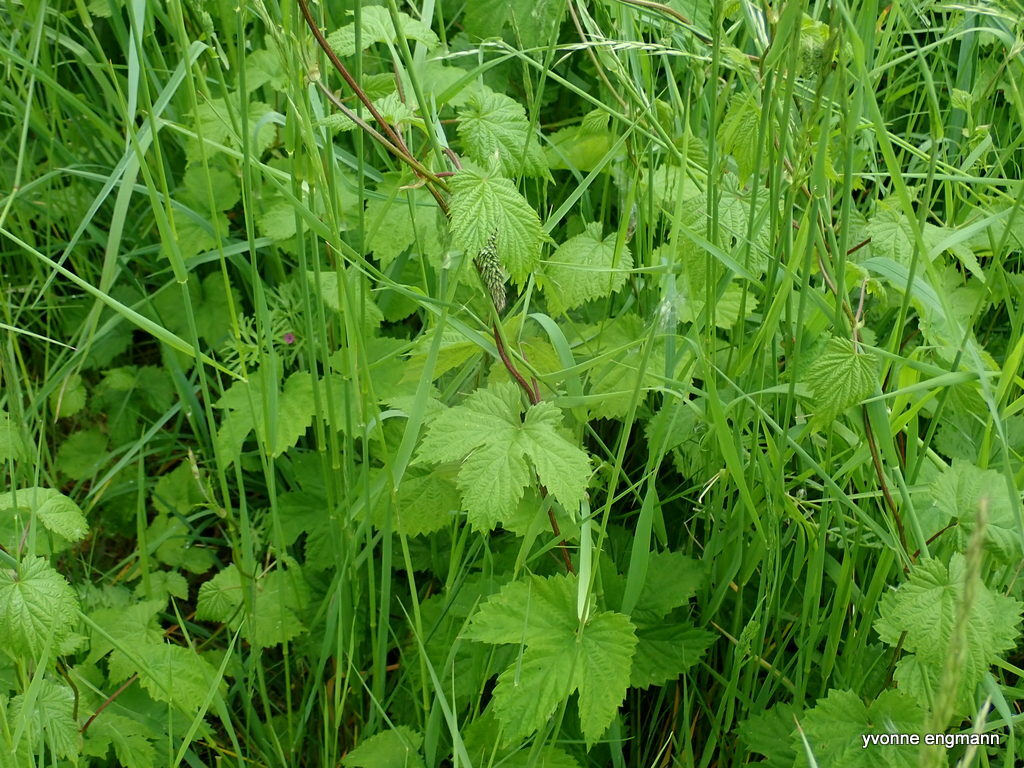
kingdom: Plantae
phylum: Tracheophyta
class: Magnoliopsida
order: Rosales
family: Cannabaceae
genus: Humulus
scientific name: Humulus lupulus
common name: Hop
